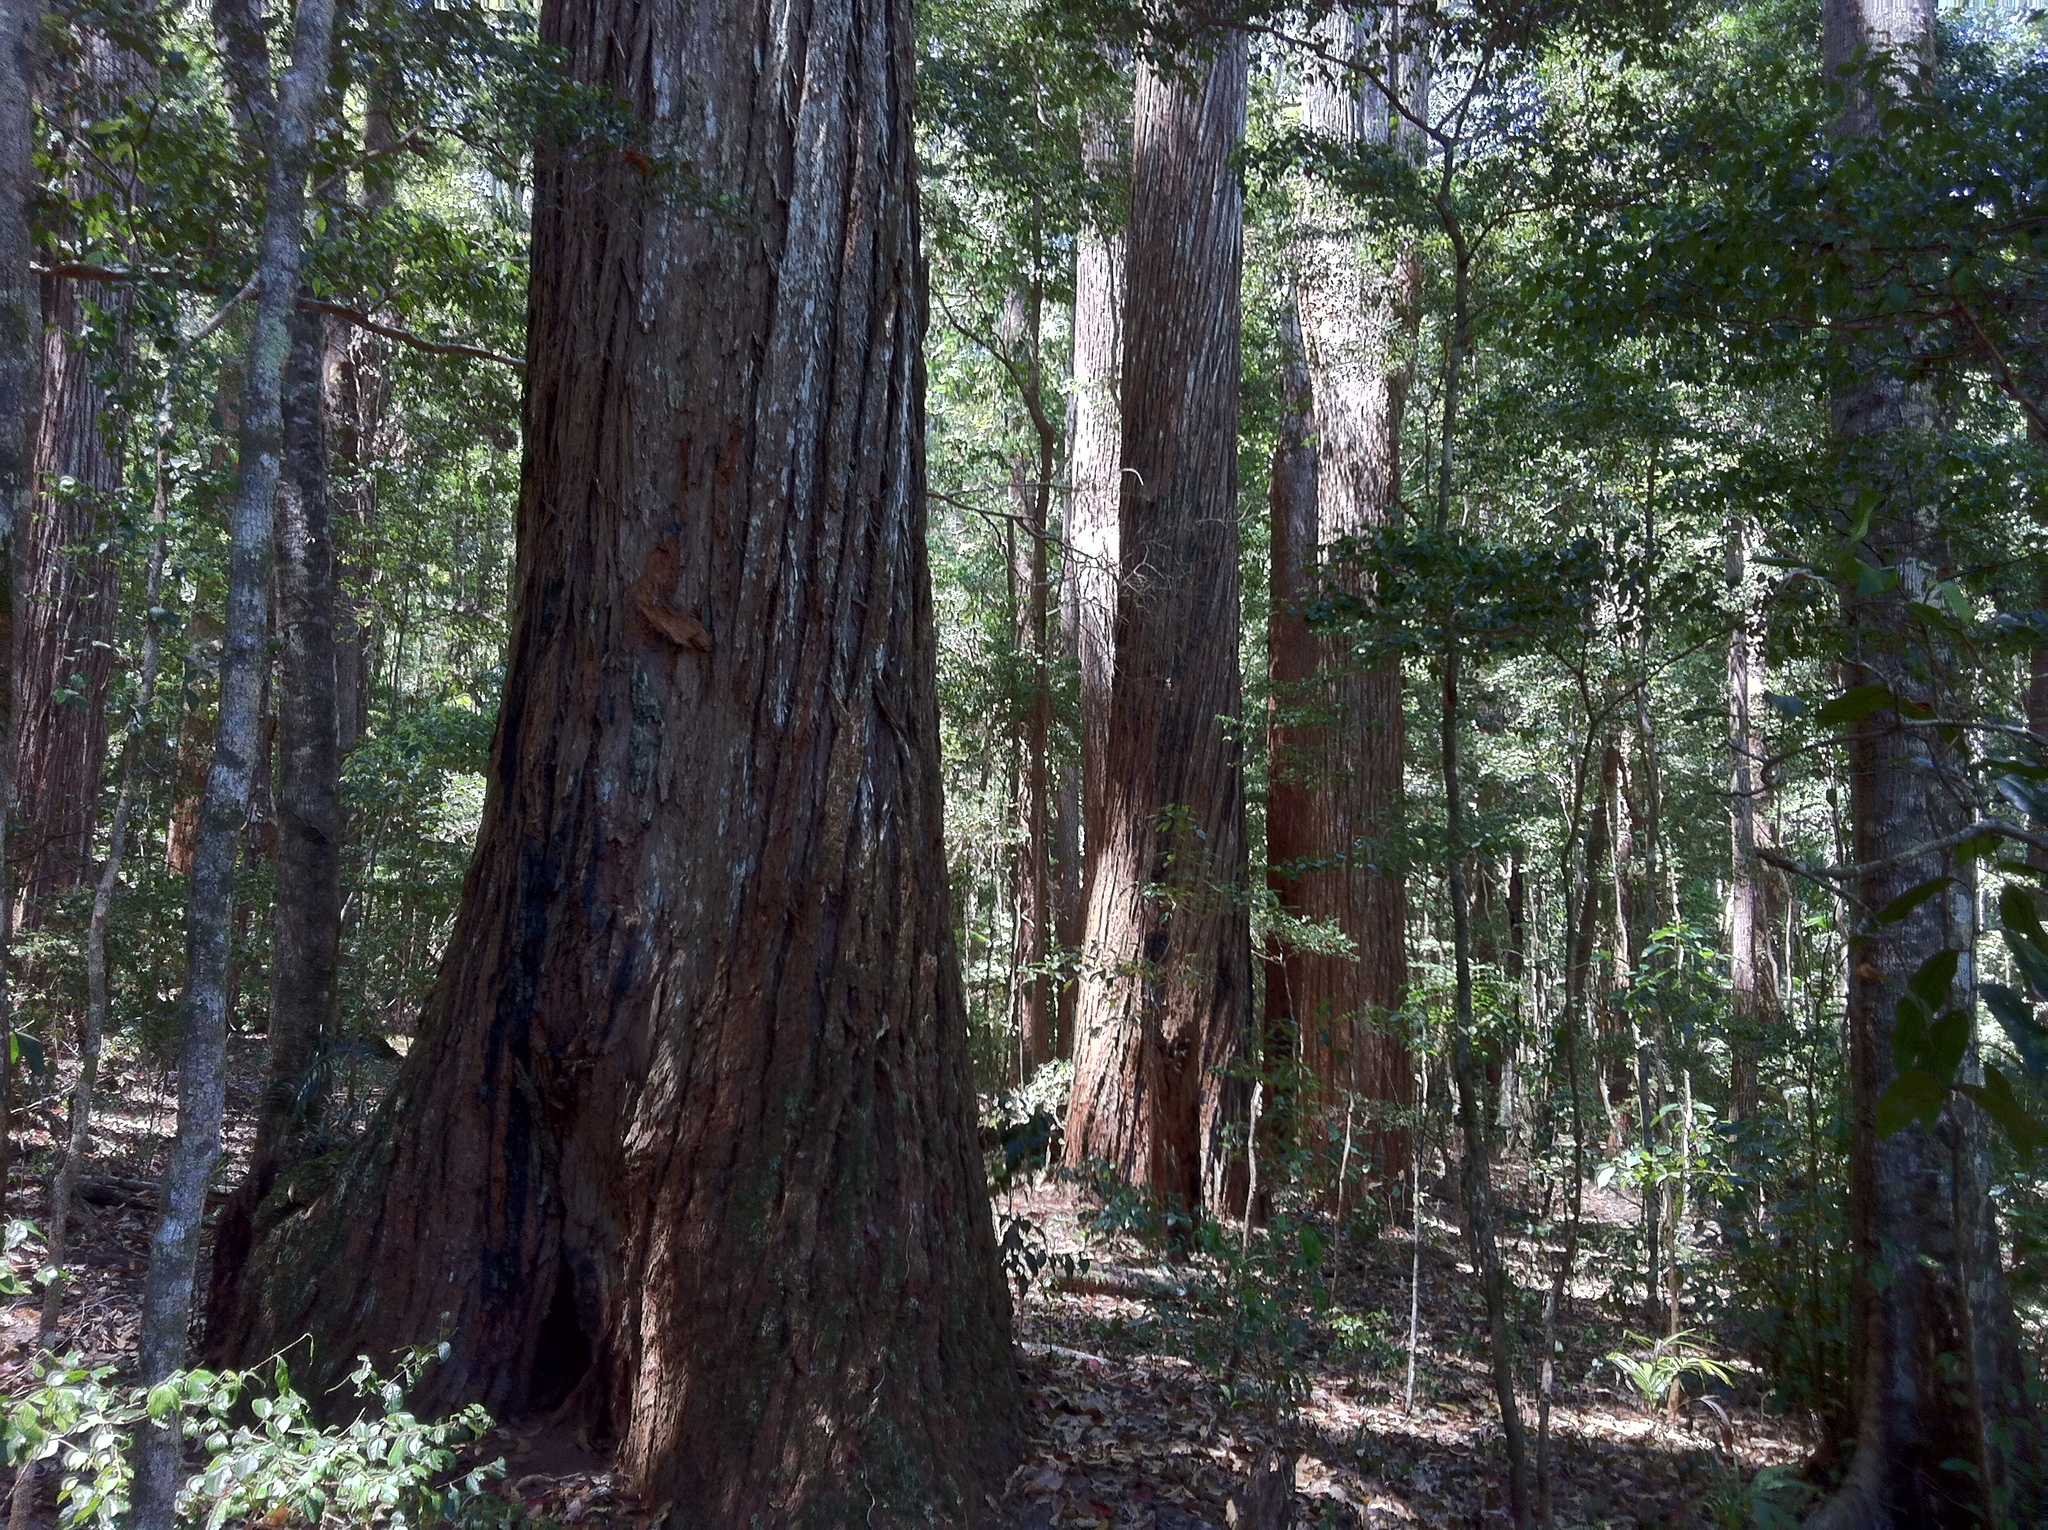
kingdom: Plantae
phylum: Tracheophyta
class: Magnoliopsida
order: Myrtales
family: Myrtaceae
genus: Syncarpia
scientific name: Syncarpia hillii
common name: Fraser island turpentine
